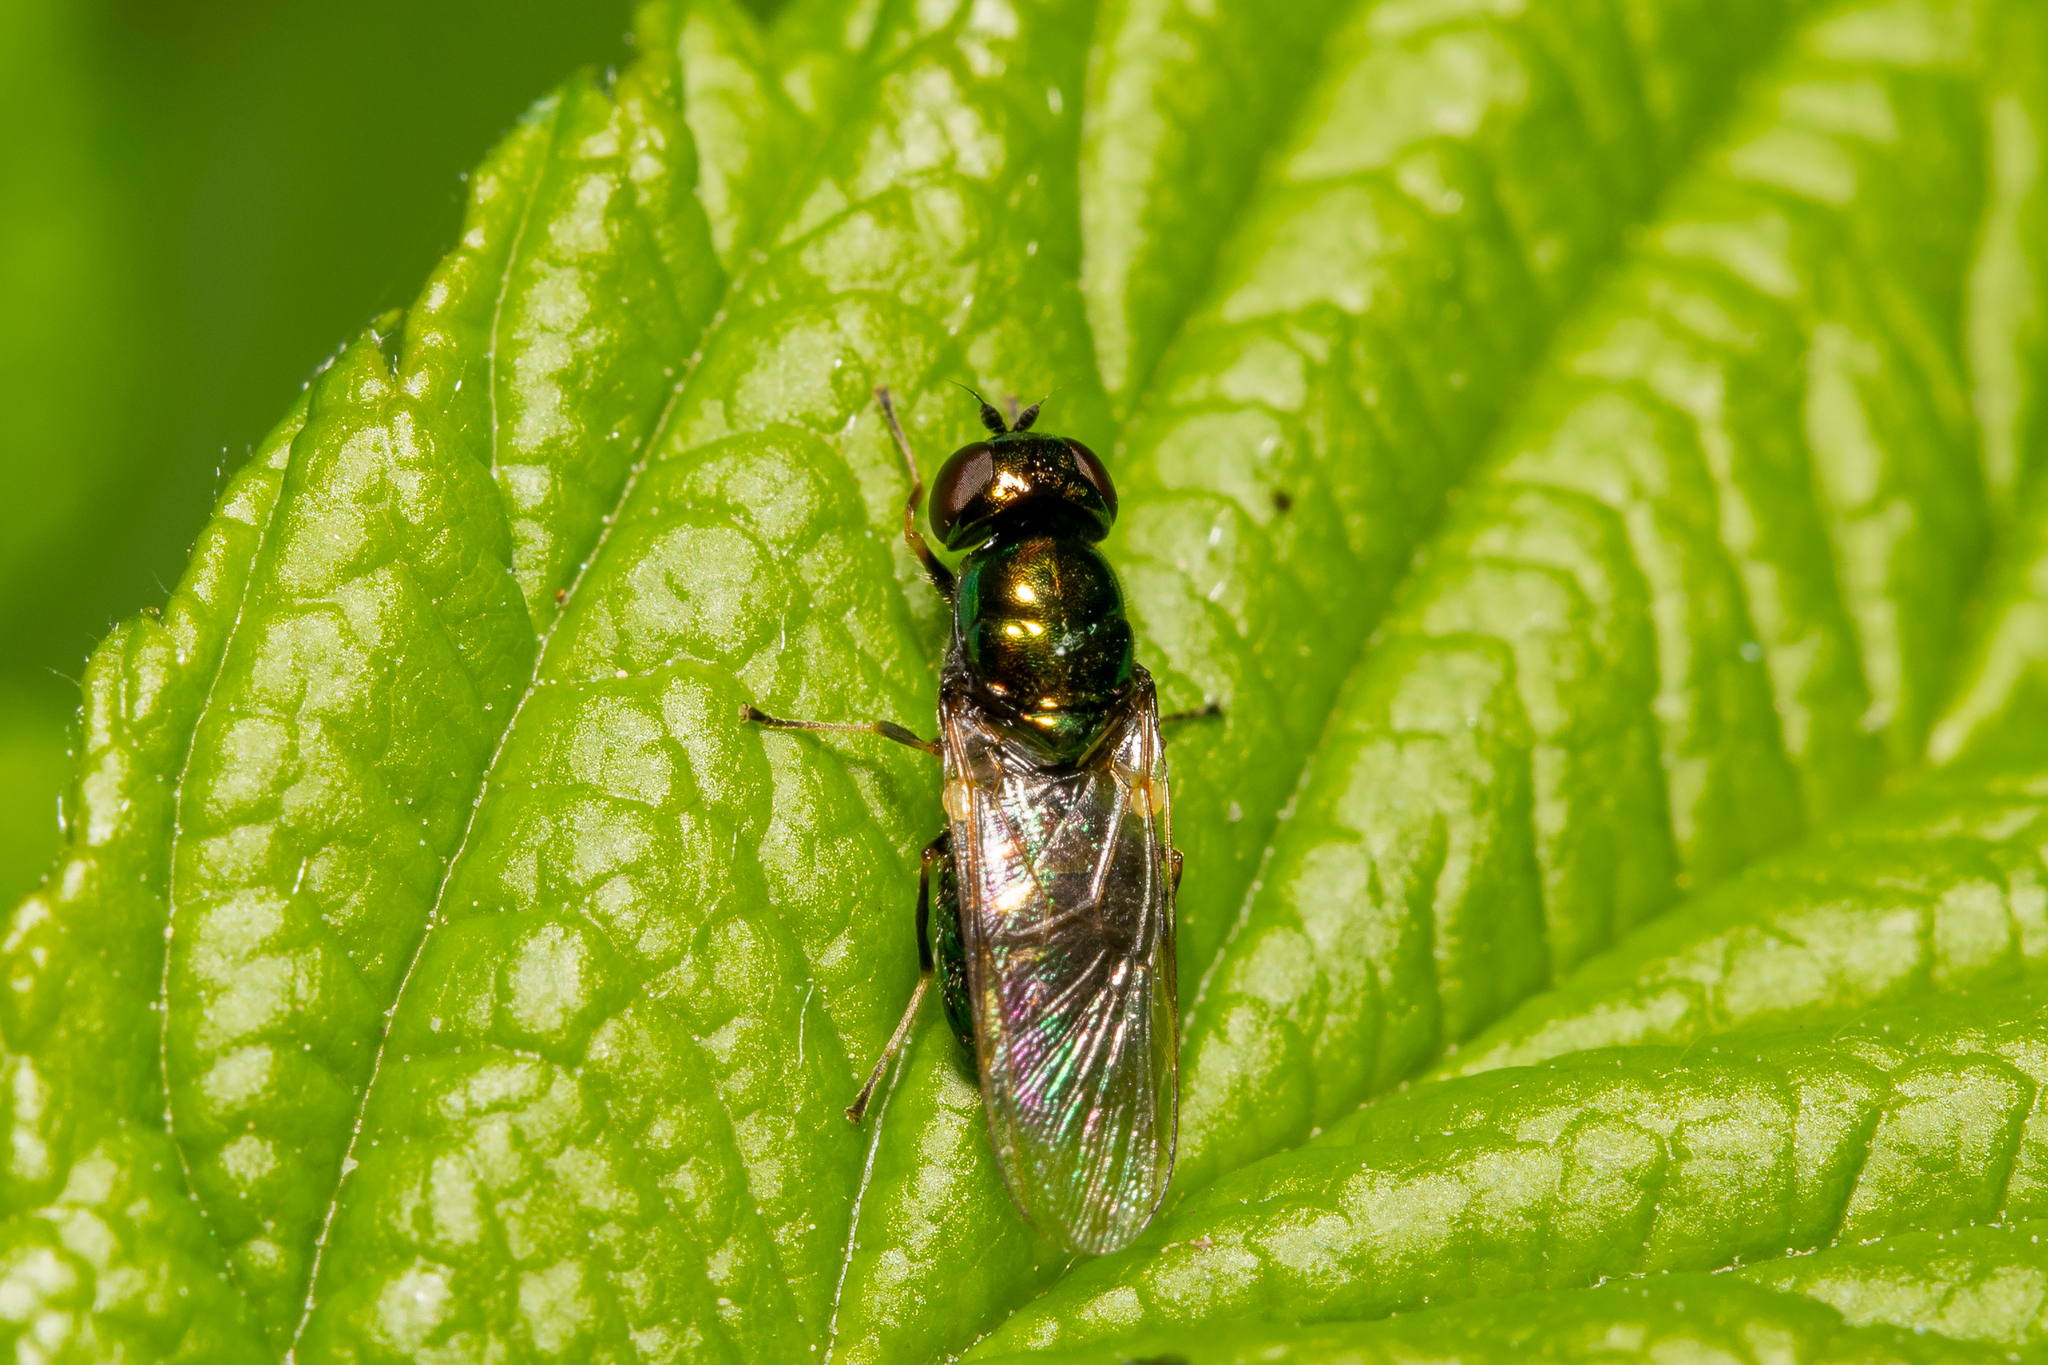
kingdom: Animalia
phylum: Arthropoda
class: Insecta
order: Diptera
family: Stratiomyidae
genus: Microchrysa
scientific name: Microchrysa polita
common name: Black-horned gem
